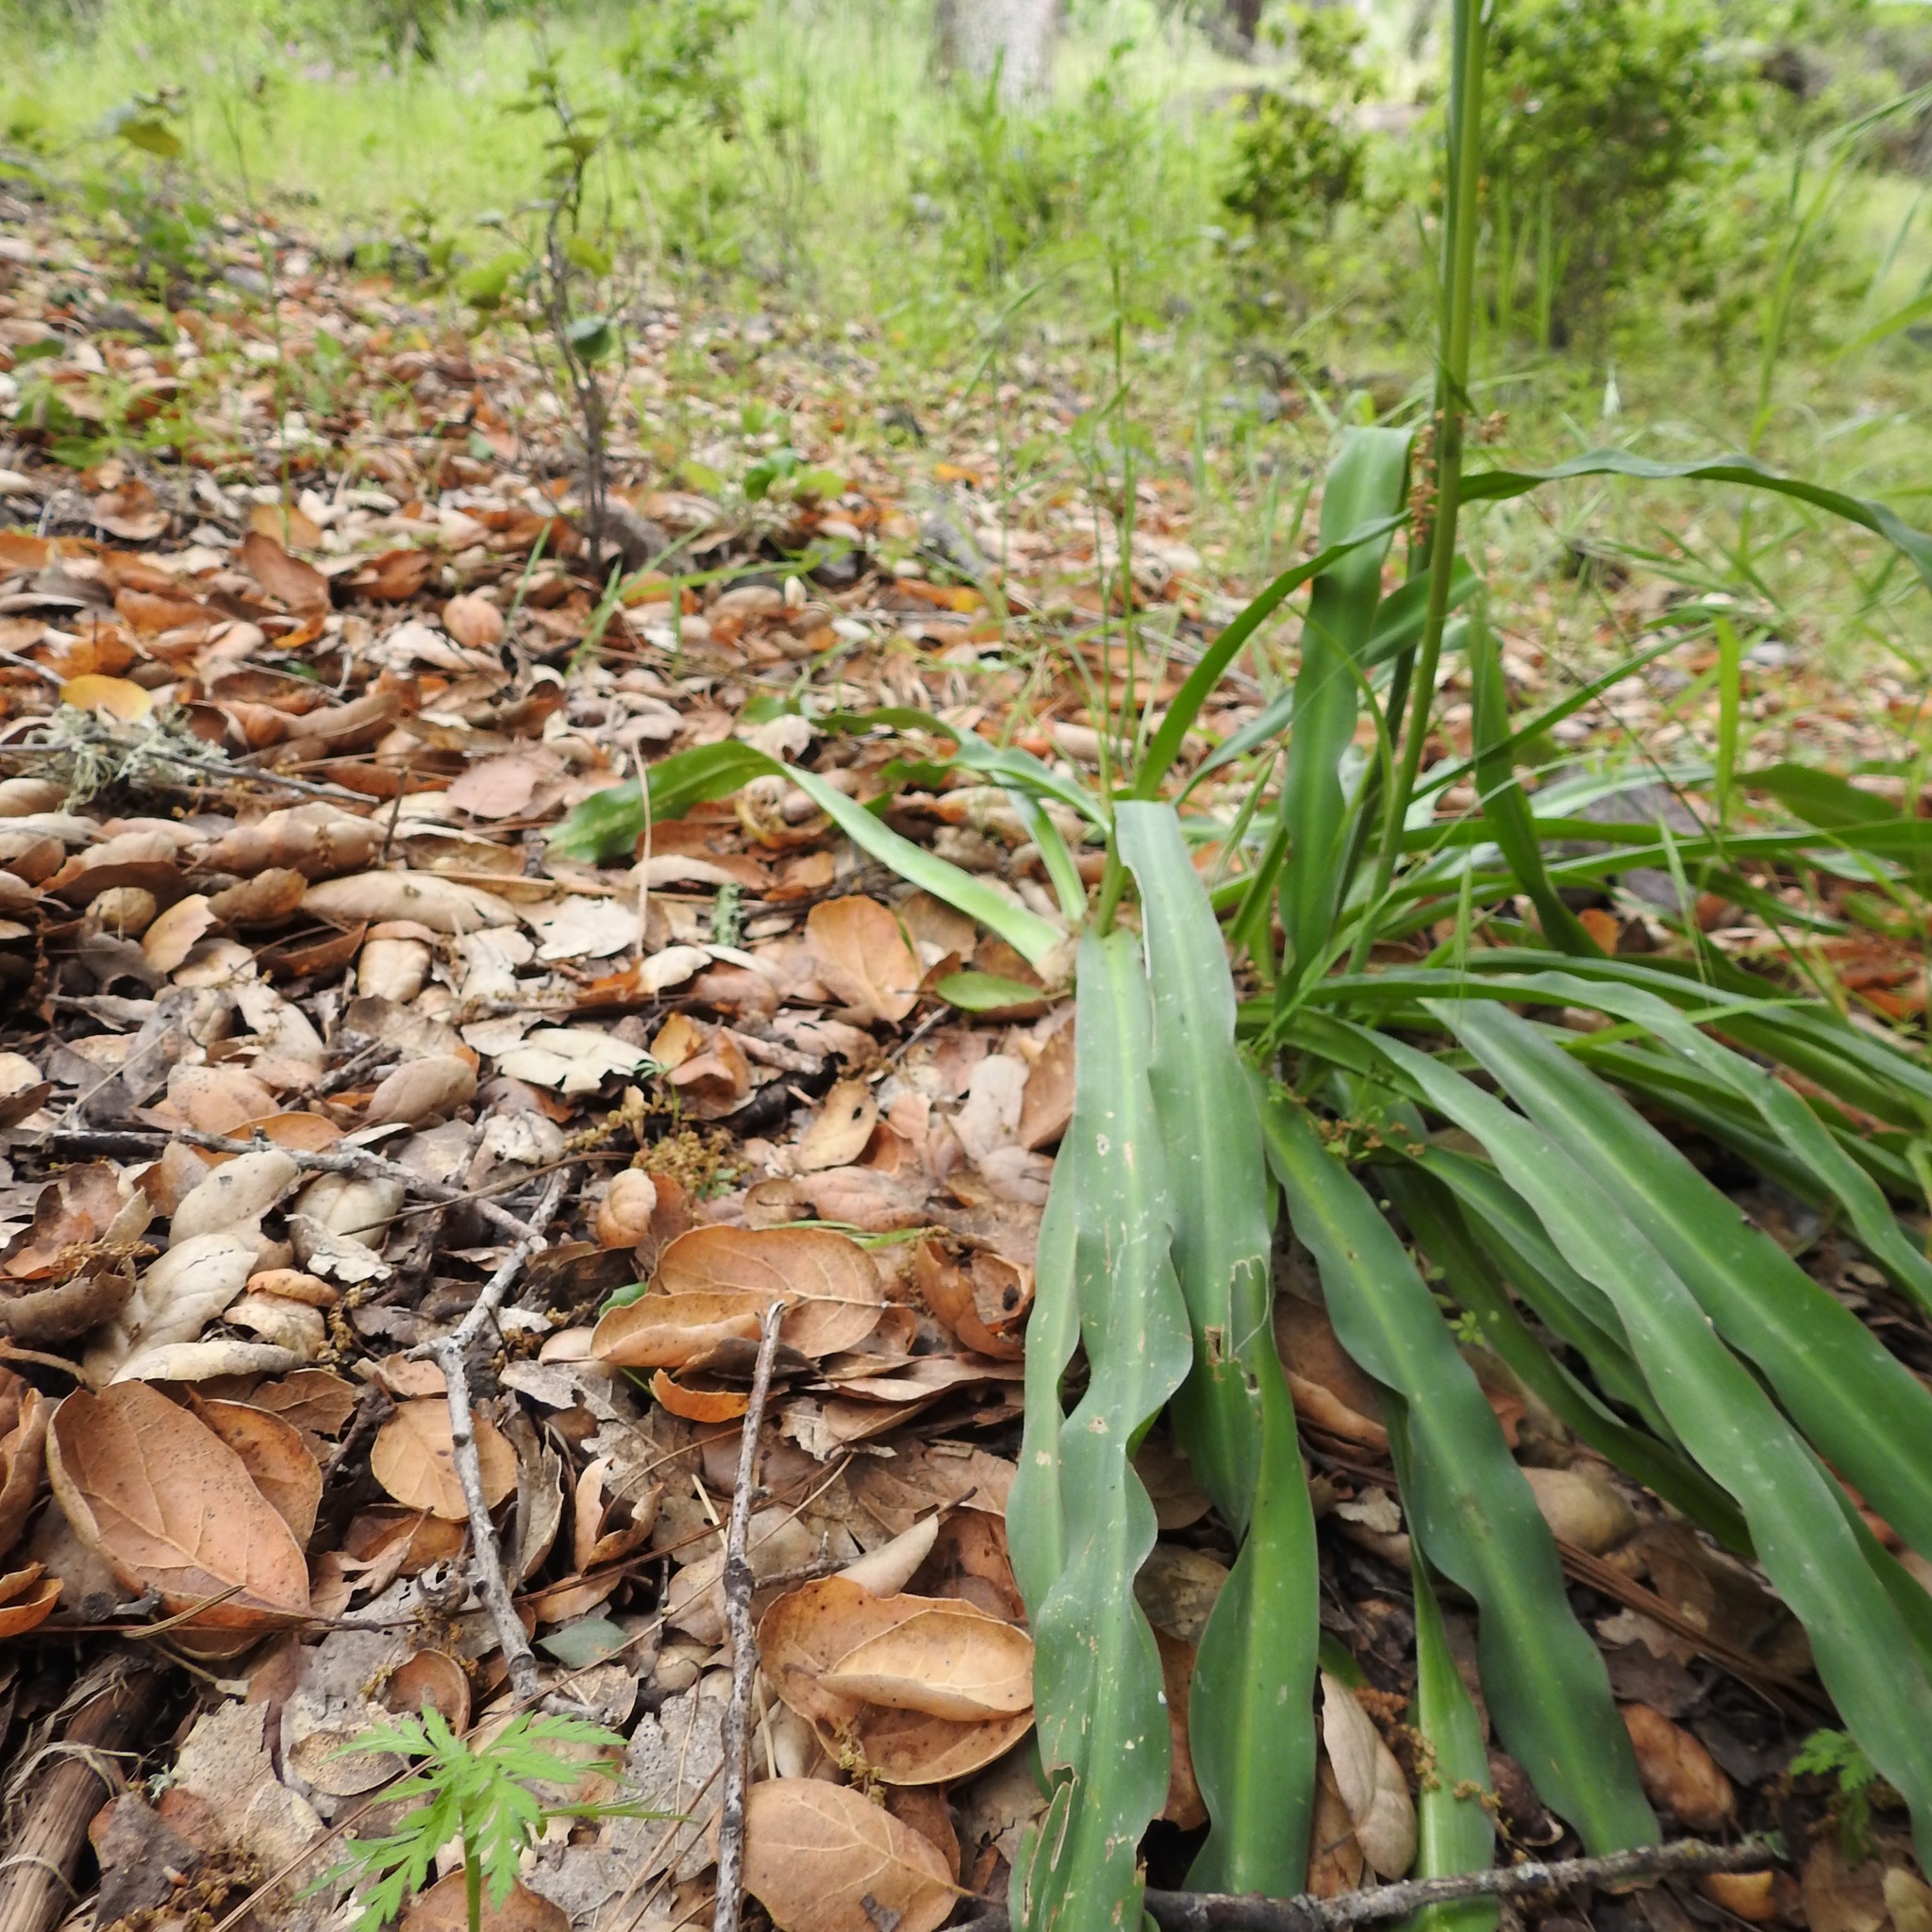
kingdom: Plantae
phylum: Tracheophyta
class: Liliopsida
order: Asparagales
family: Asparagaceae
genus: Chlorogalum
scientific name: Chlorogalum pomeridianum
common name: Amole
